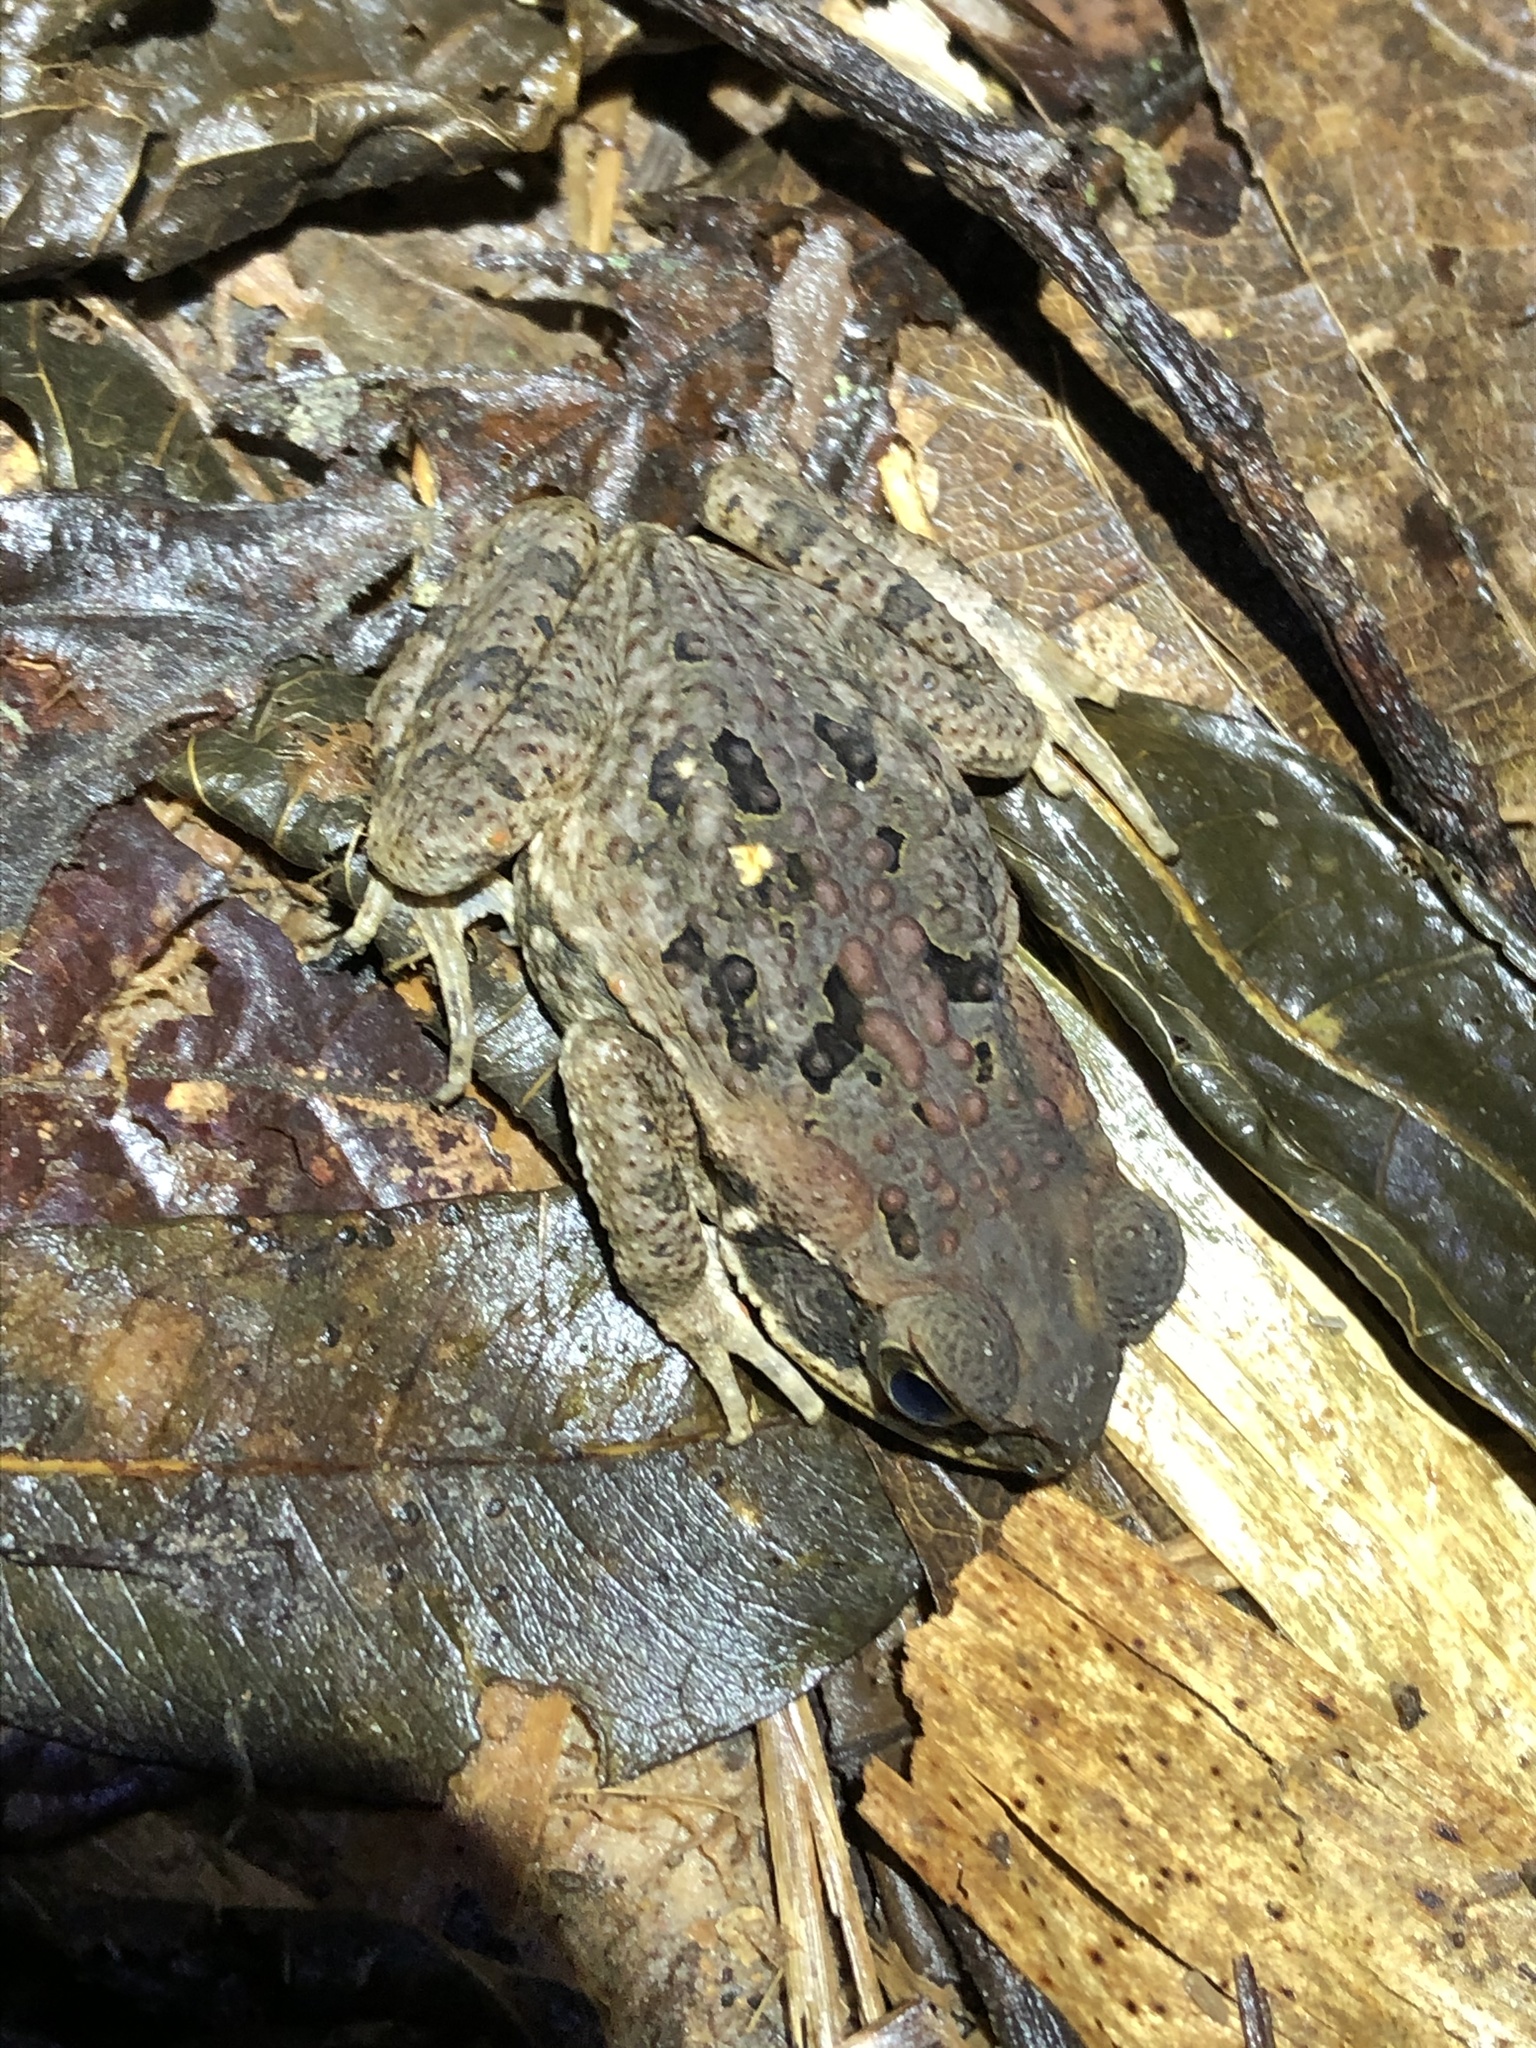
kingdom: Animalia
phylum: Chordata
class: Amphibia
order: Anura
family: Bufonidae
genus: Rhinella
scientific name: Rhinella marina
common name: Cane toad
